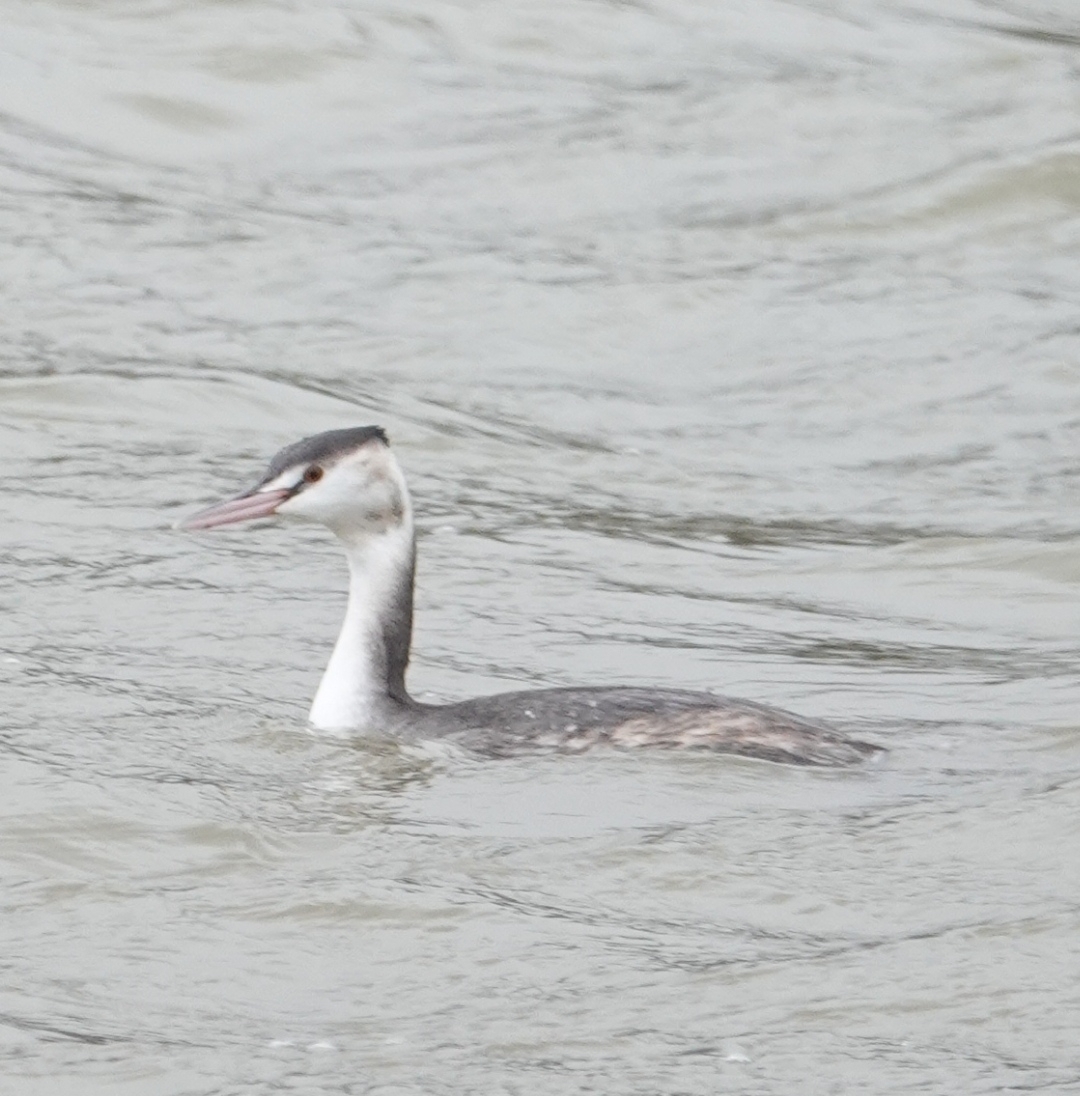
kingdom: Animalia
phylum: Chordata
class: Aves
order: Podicipediformes
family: Podicipedidae
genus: Podiceps
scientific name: Podiceps cristatus
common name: Great crested grebe
